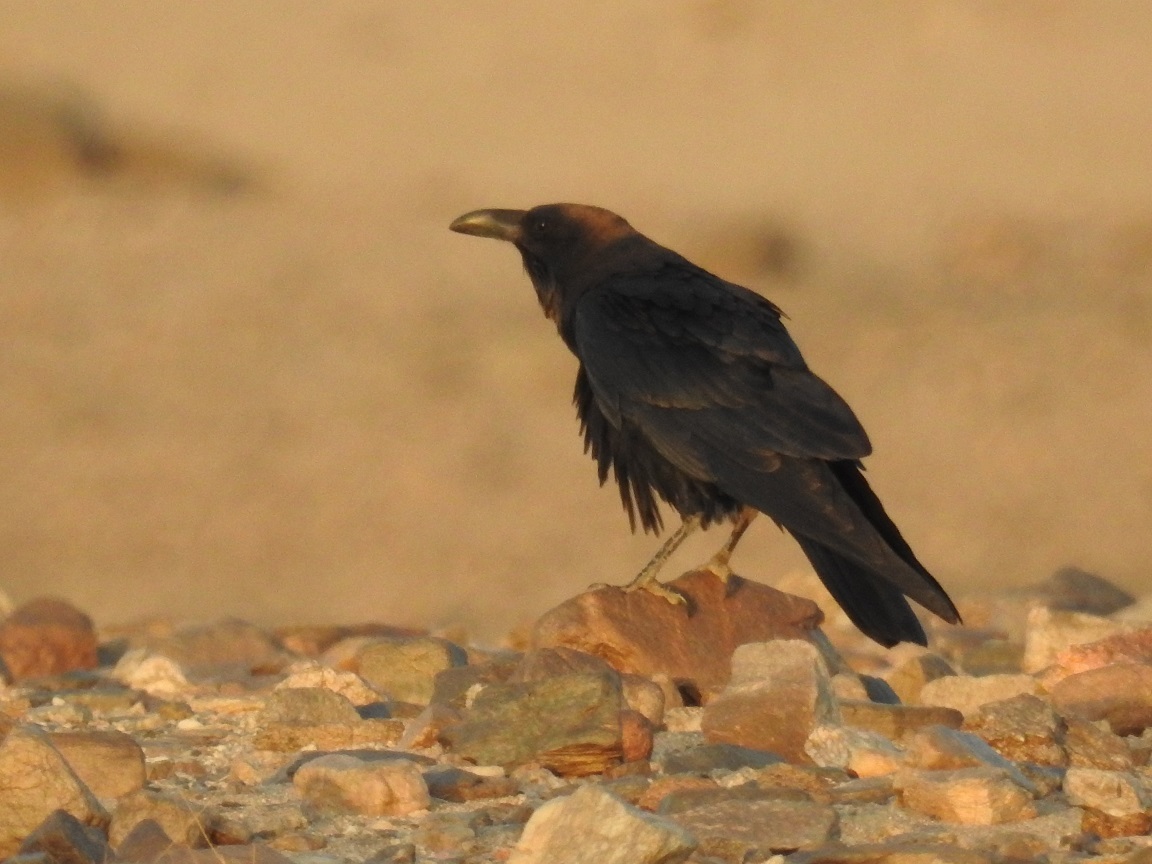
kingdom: Animalia
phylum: Chordata
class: Aves
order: Passeriformes
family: Corvidae
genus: Corvus
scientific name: Corvus ruficollis
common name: Brown-necked raven
